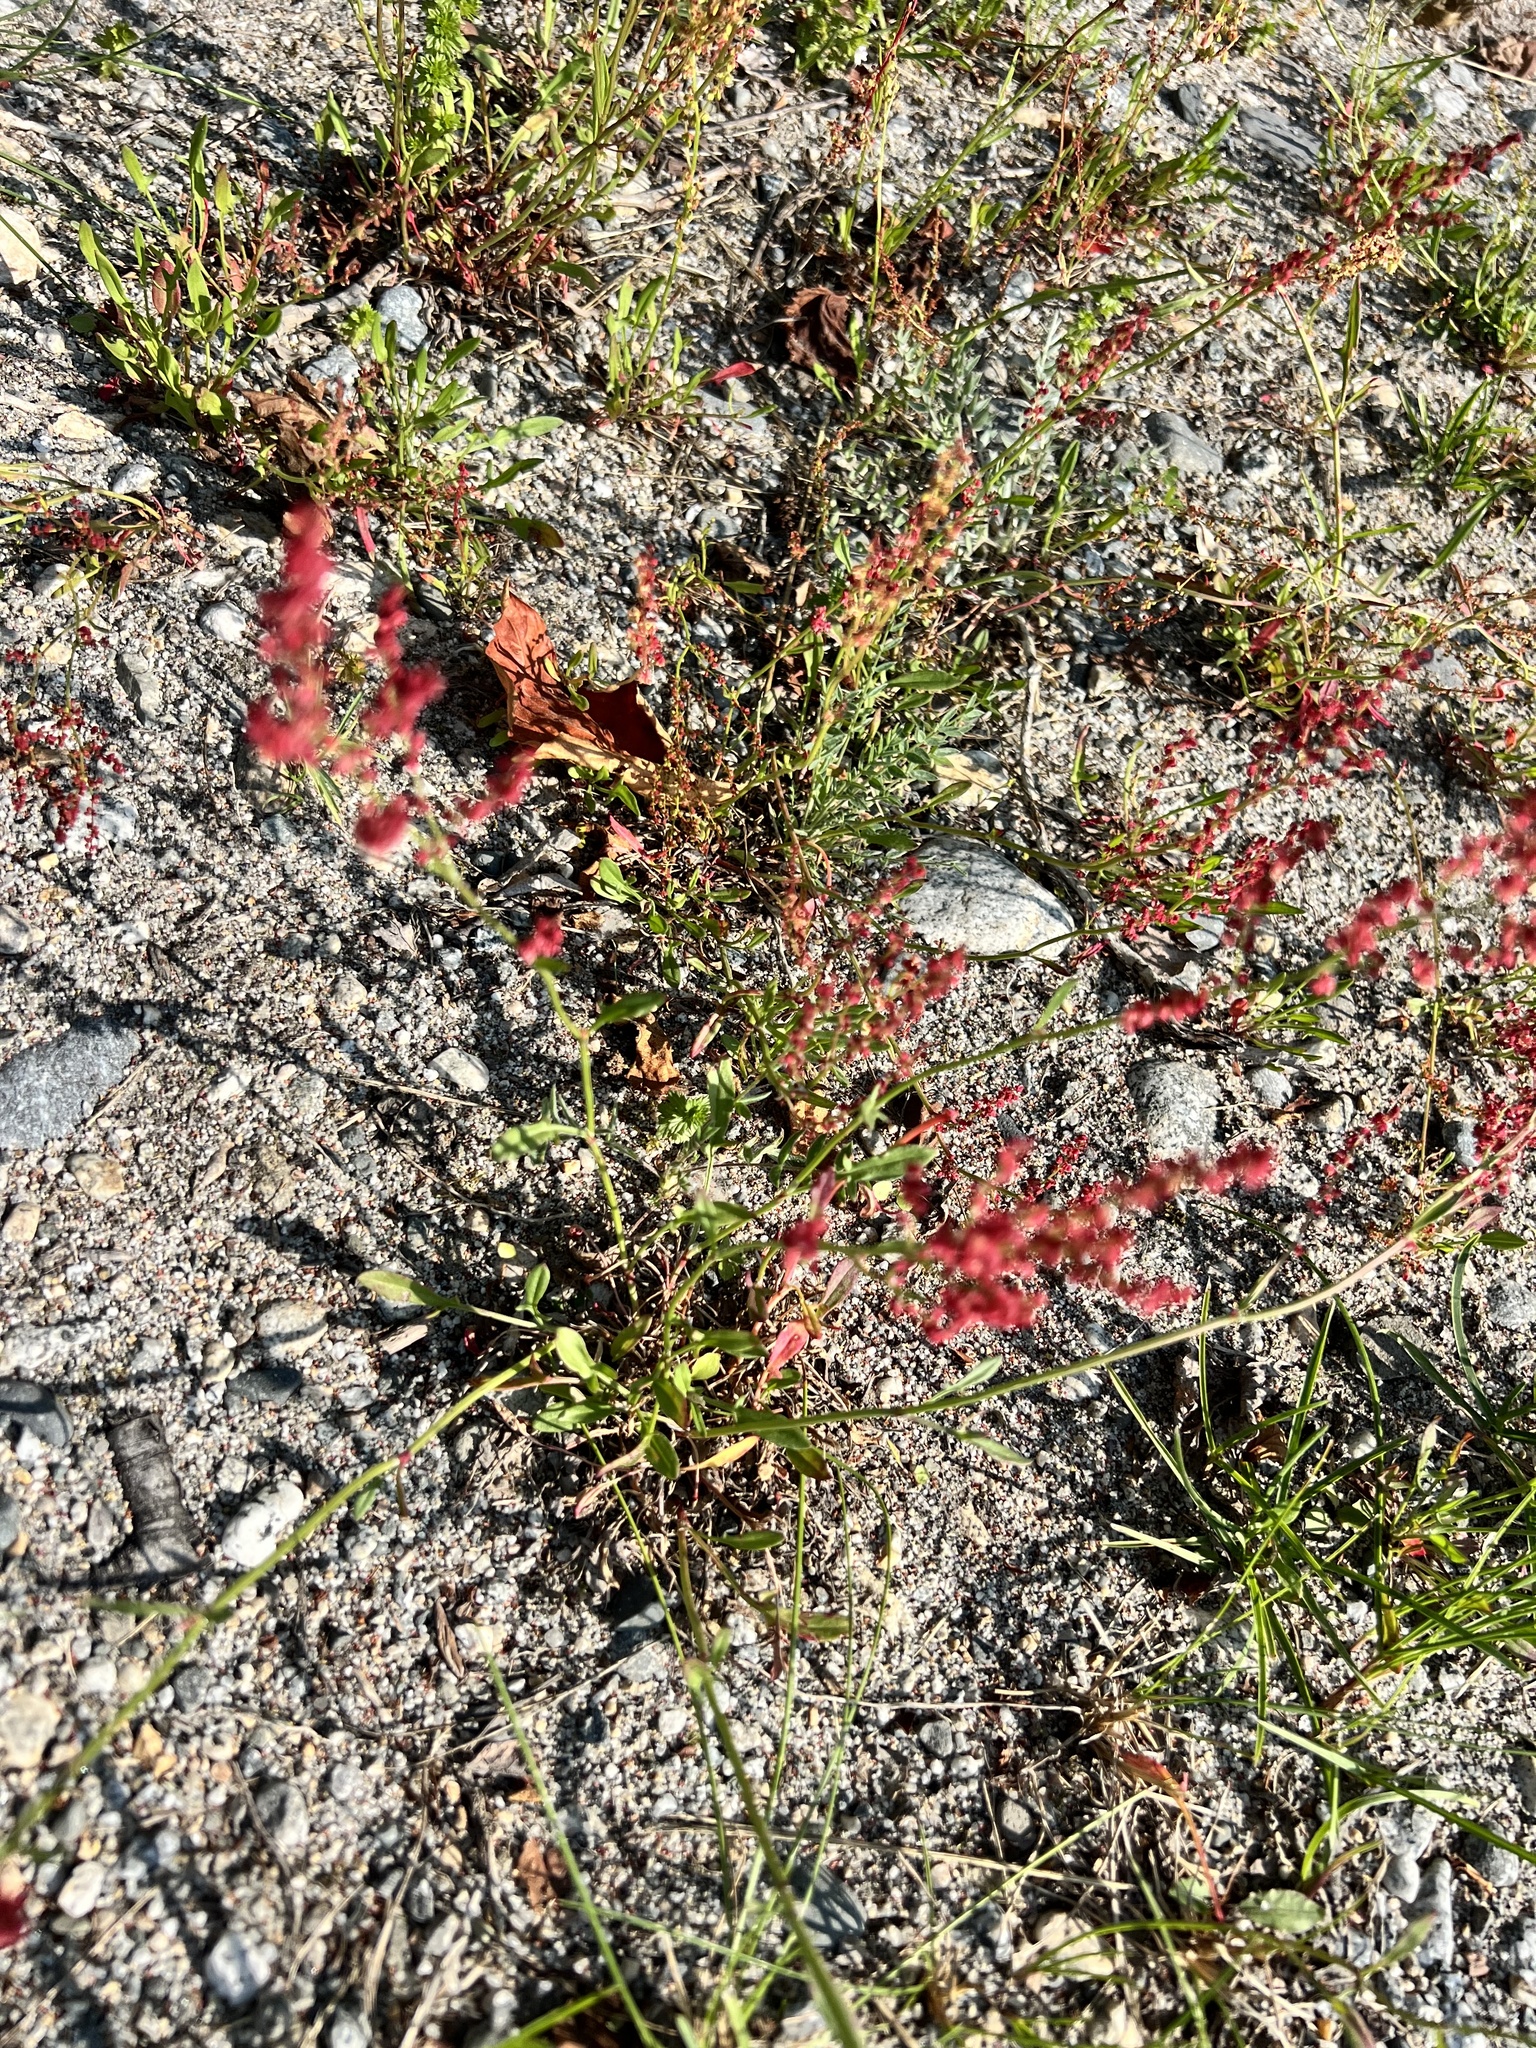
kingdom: Plantae
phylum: Tracheophyta
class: Magnoliopsida
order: Caryophyllales
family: Polygonaceae
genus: Rumex
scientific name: Rumex acetosella
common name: Common sheep sorrel
